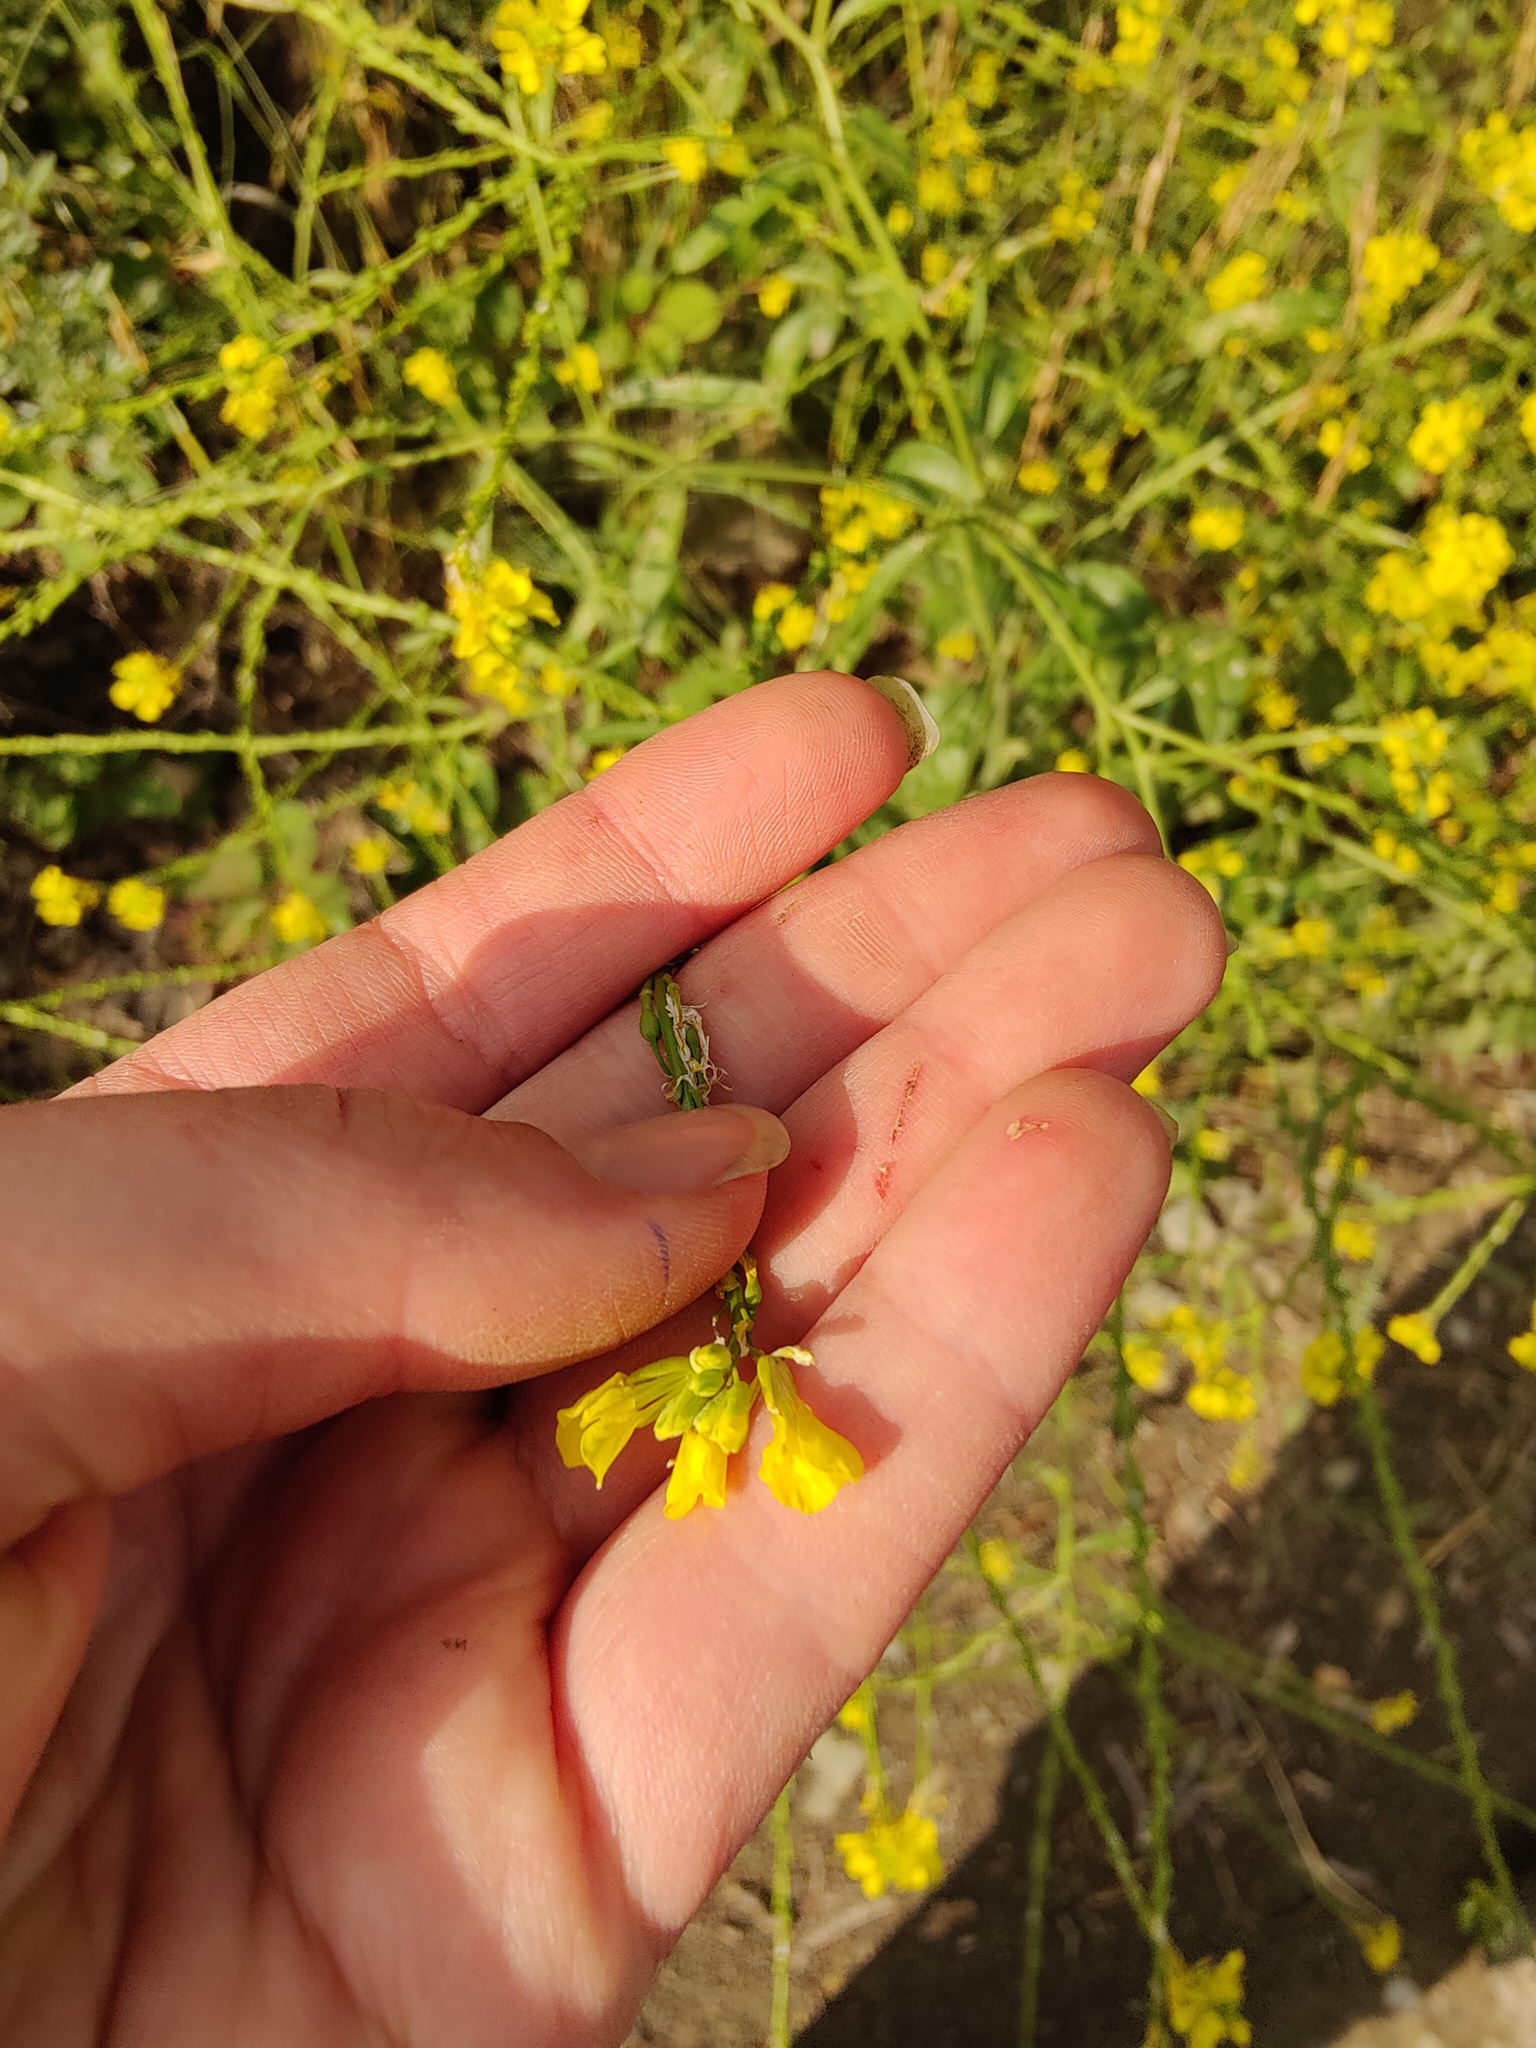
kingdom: Plantae
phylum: Tracheophyta
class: Magnoliopsida
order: Brassicales
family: Brassicaceae
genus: Rapistrum
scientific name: Rapistrum rugosum
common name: Annual bastardcabbage
